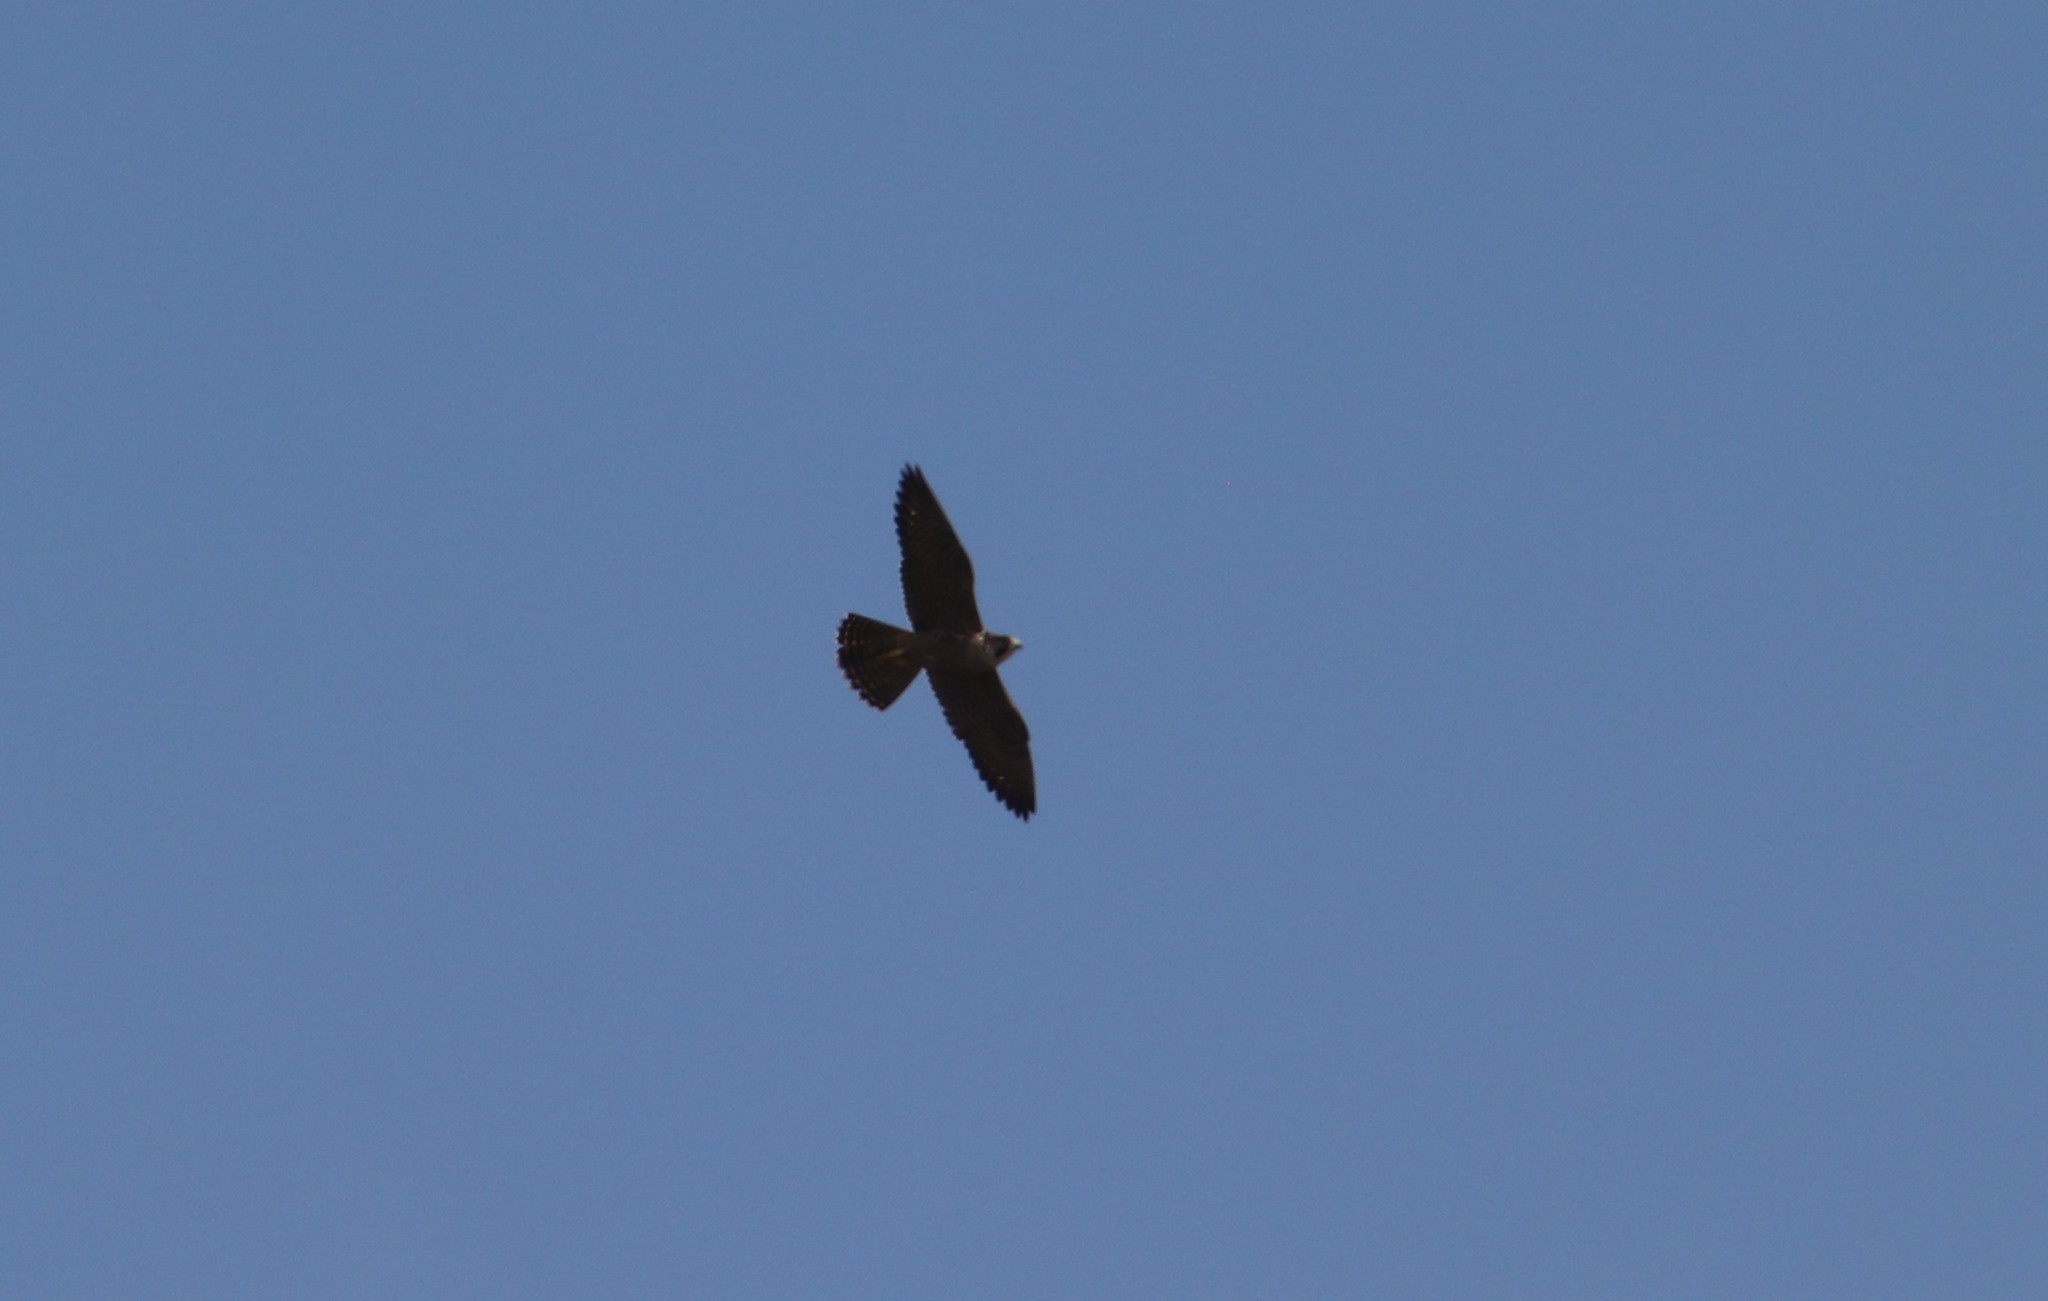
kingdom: Animalia
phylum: Chordata
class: Aves
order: Falconiformes
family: Falconidae
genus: Falco
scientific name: Falco peregrinus
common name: Peregrine falcon
